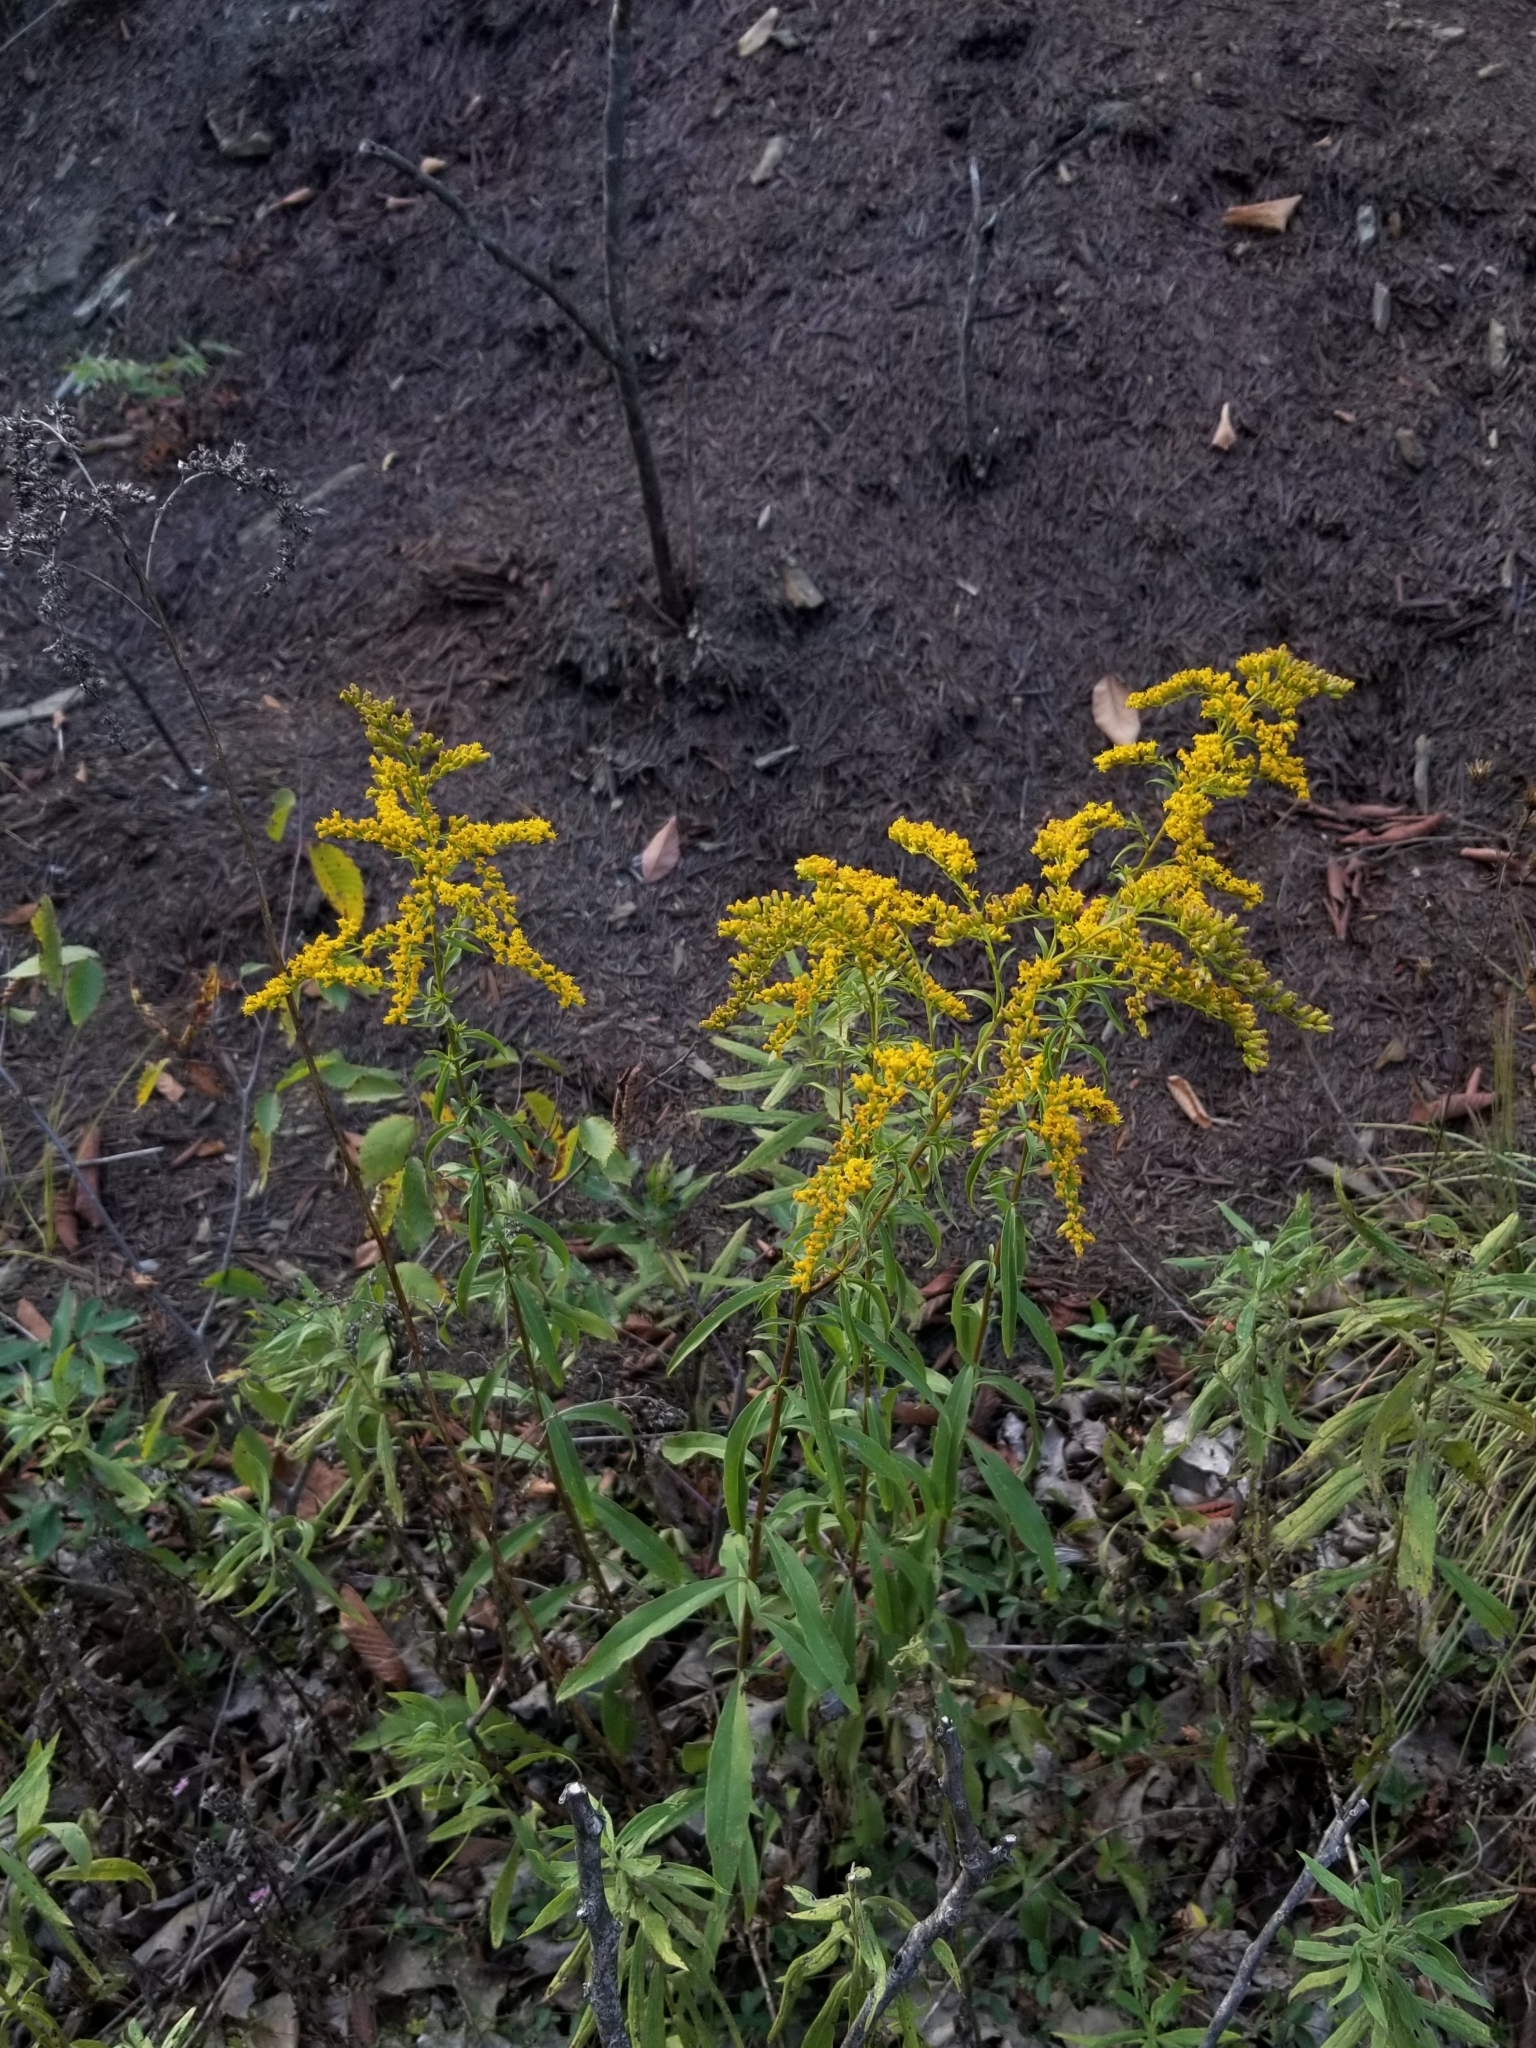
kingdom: Plantae
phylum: Tracheophyta
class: Magnoliopsida
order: Asterales
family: Asteraceae
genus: Solidago
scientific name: Solidago juncea
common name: Early goldenrod
